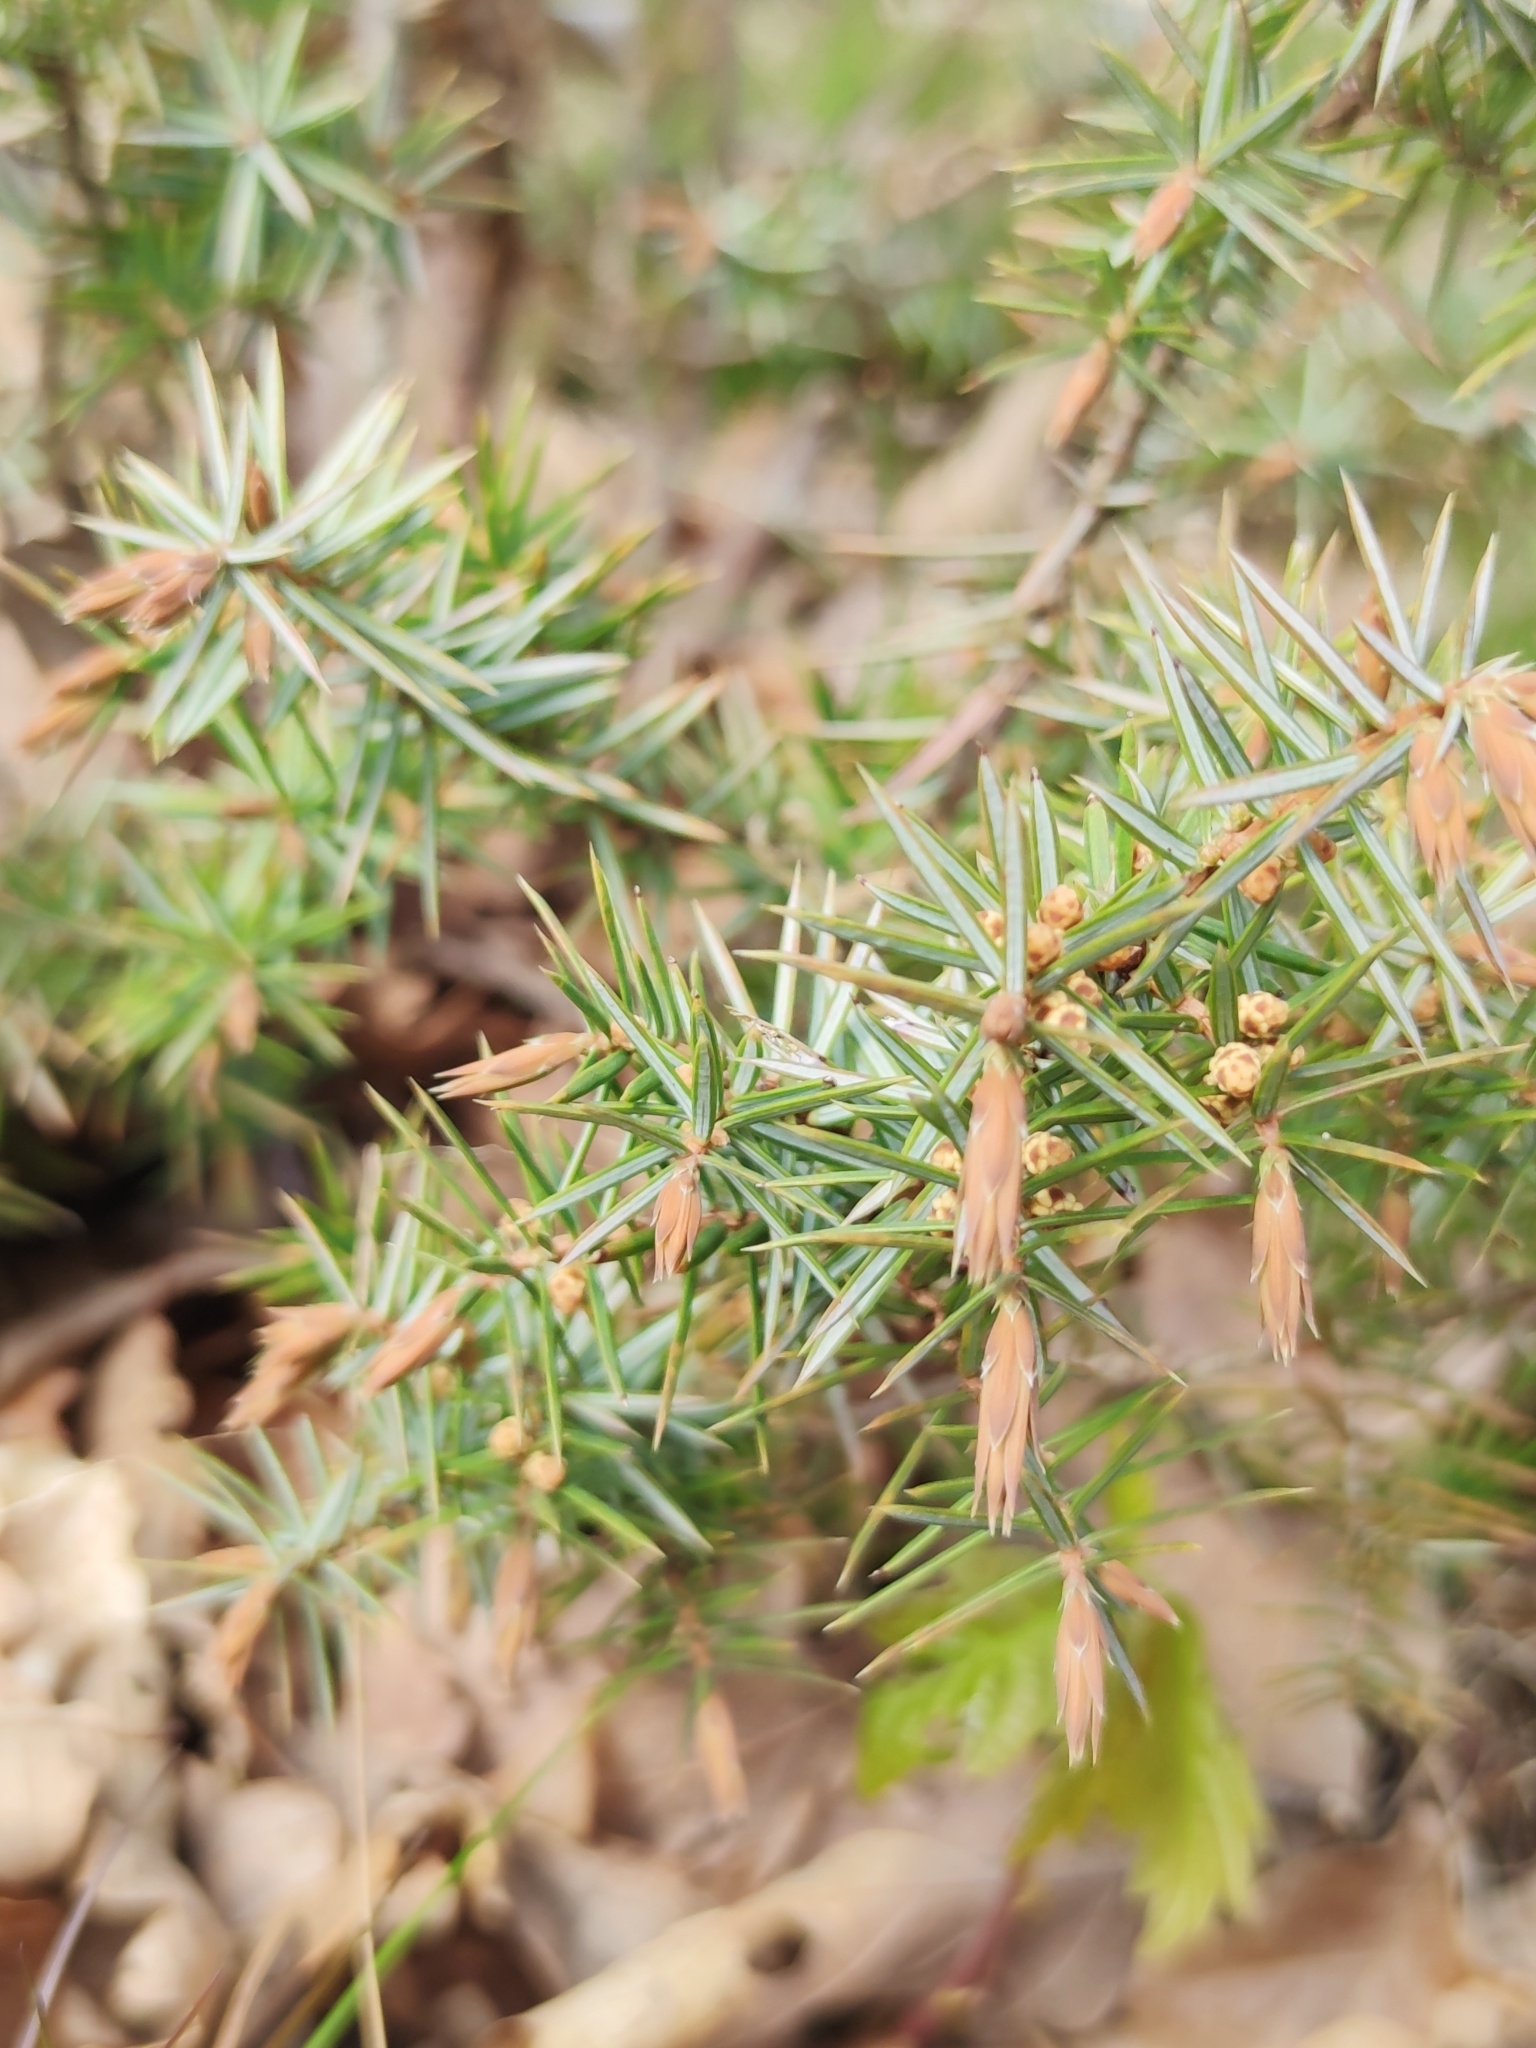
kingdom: Plantae
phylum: Tracheophyta
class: Pinopsida
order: Pinales
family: Cupressaceae
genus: Juniperus
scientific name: Juniperus communis
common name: Common juniper
